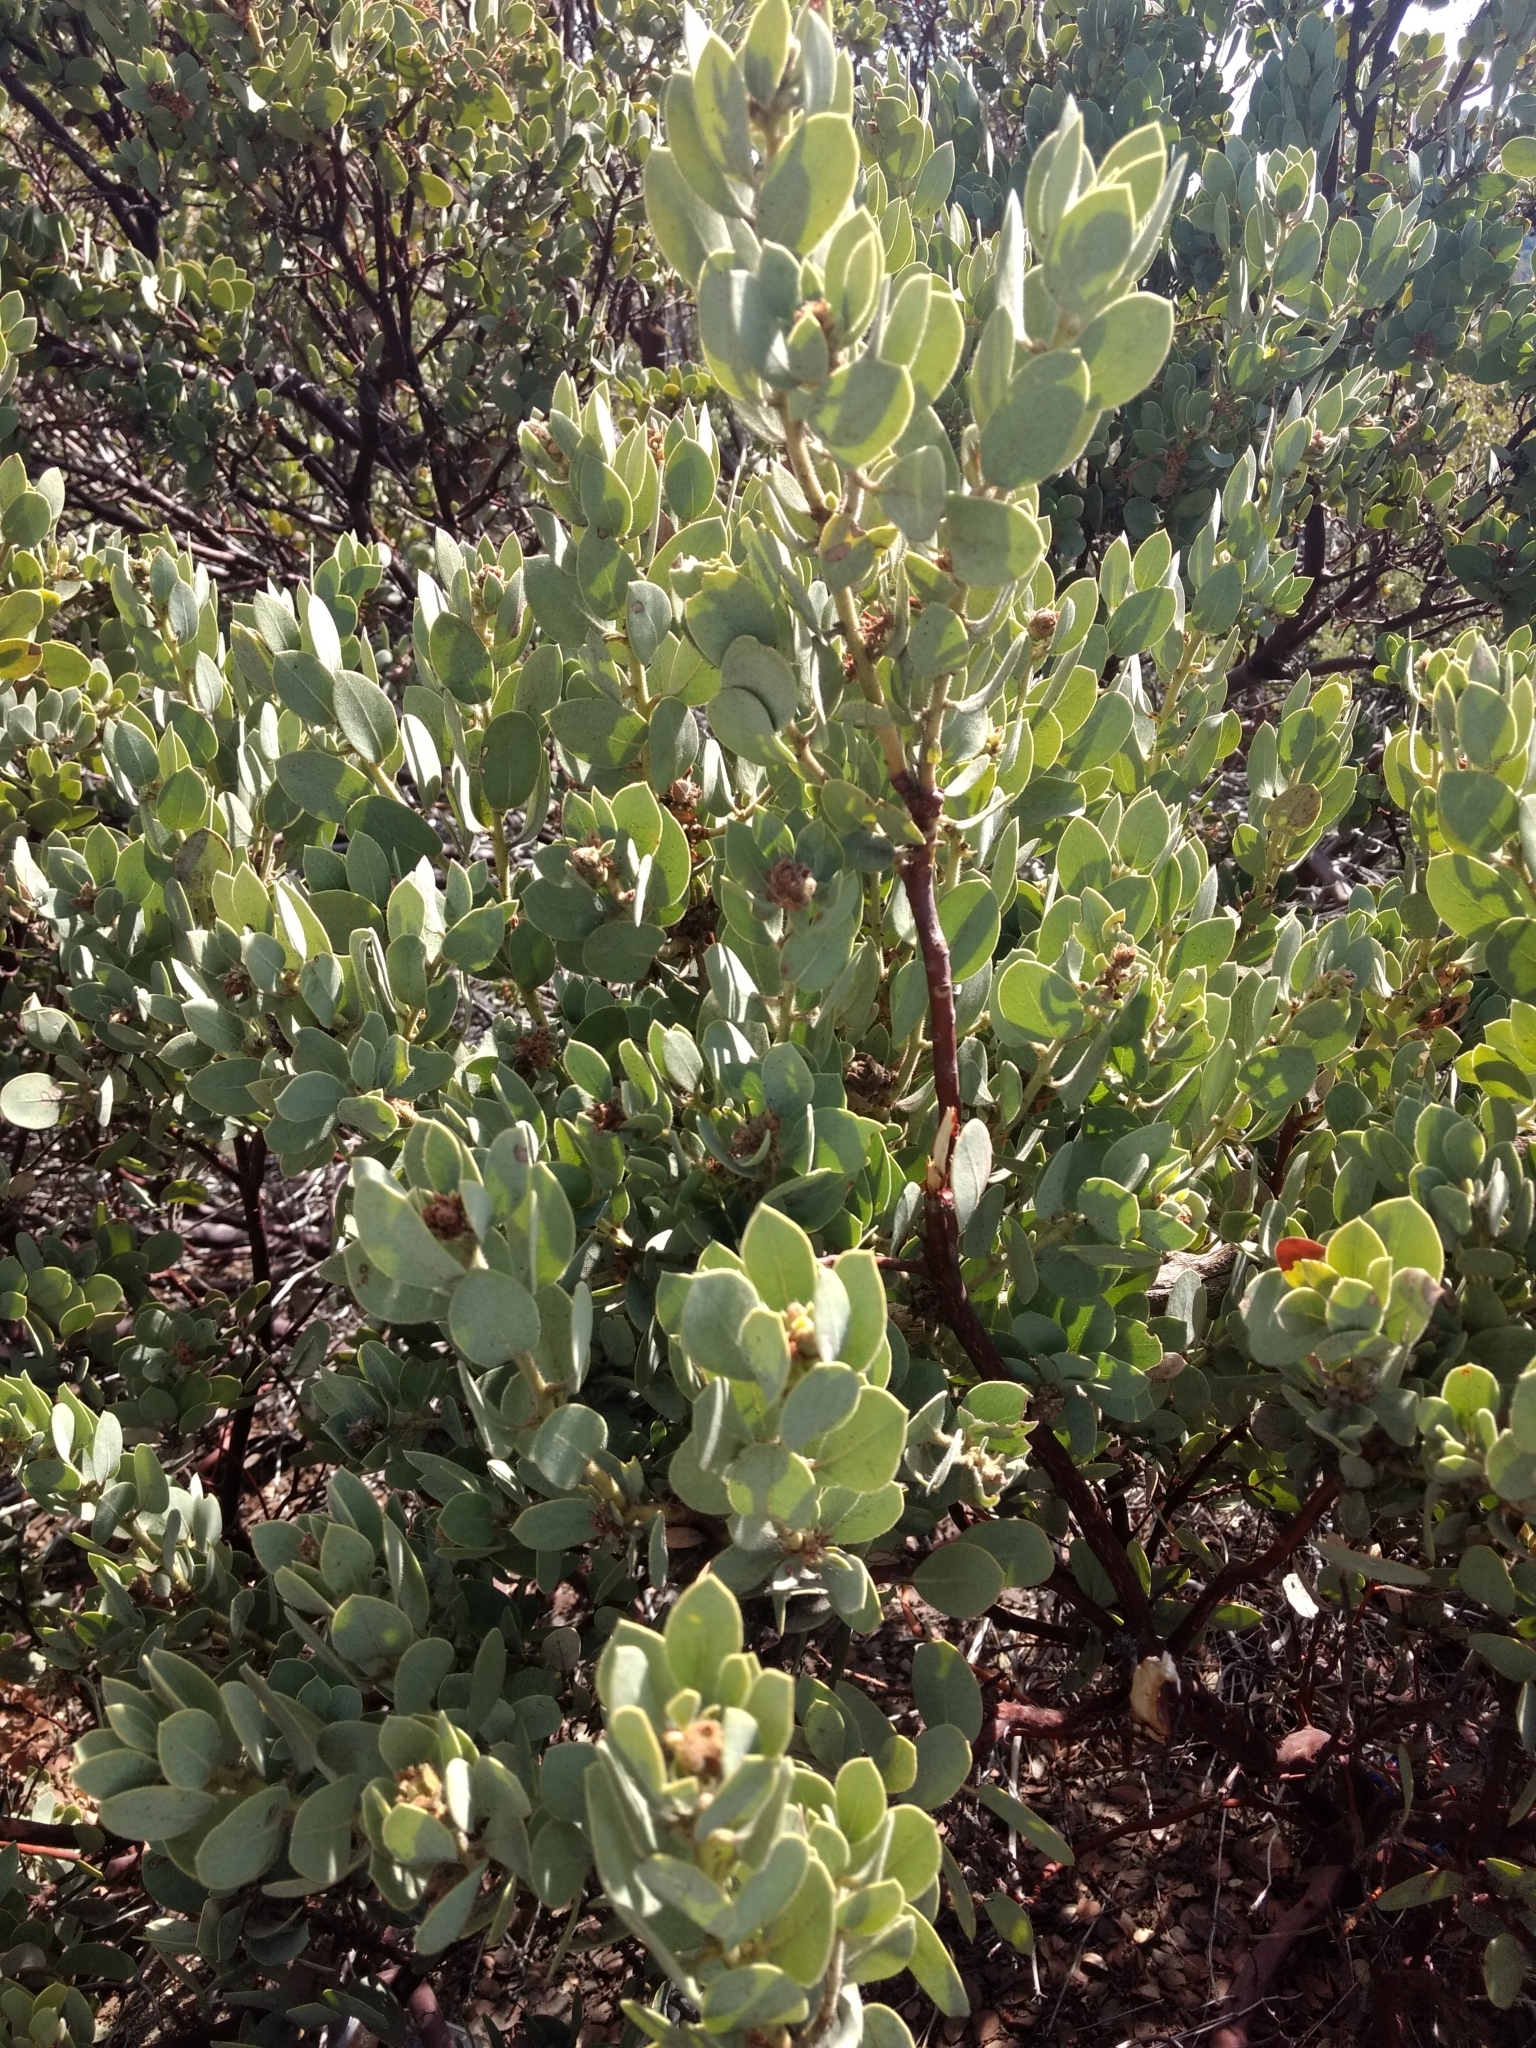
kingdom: Plantae
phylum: Tracheophyta
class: Magnoliopsida
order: Ericales
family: Ericaceae
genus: Arctostaphylos
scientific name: Arctostaphylos pringlei
